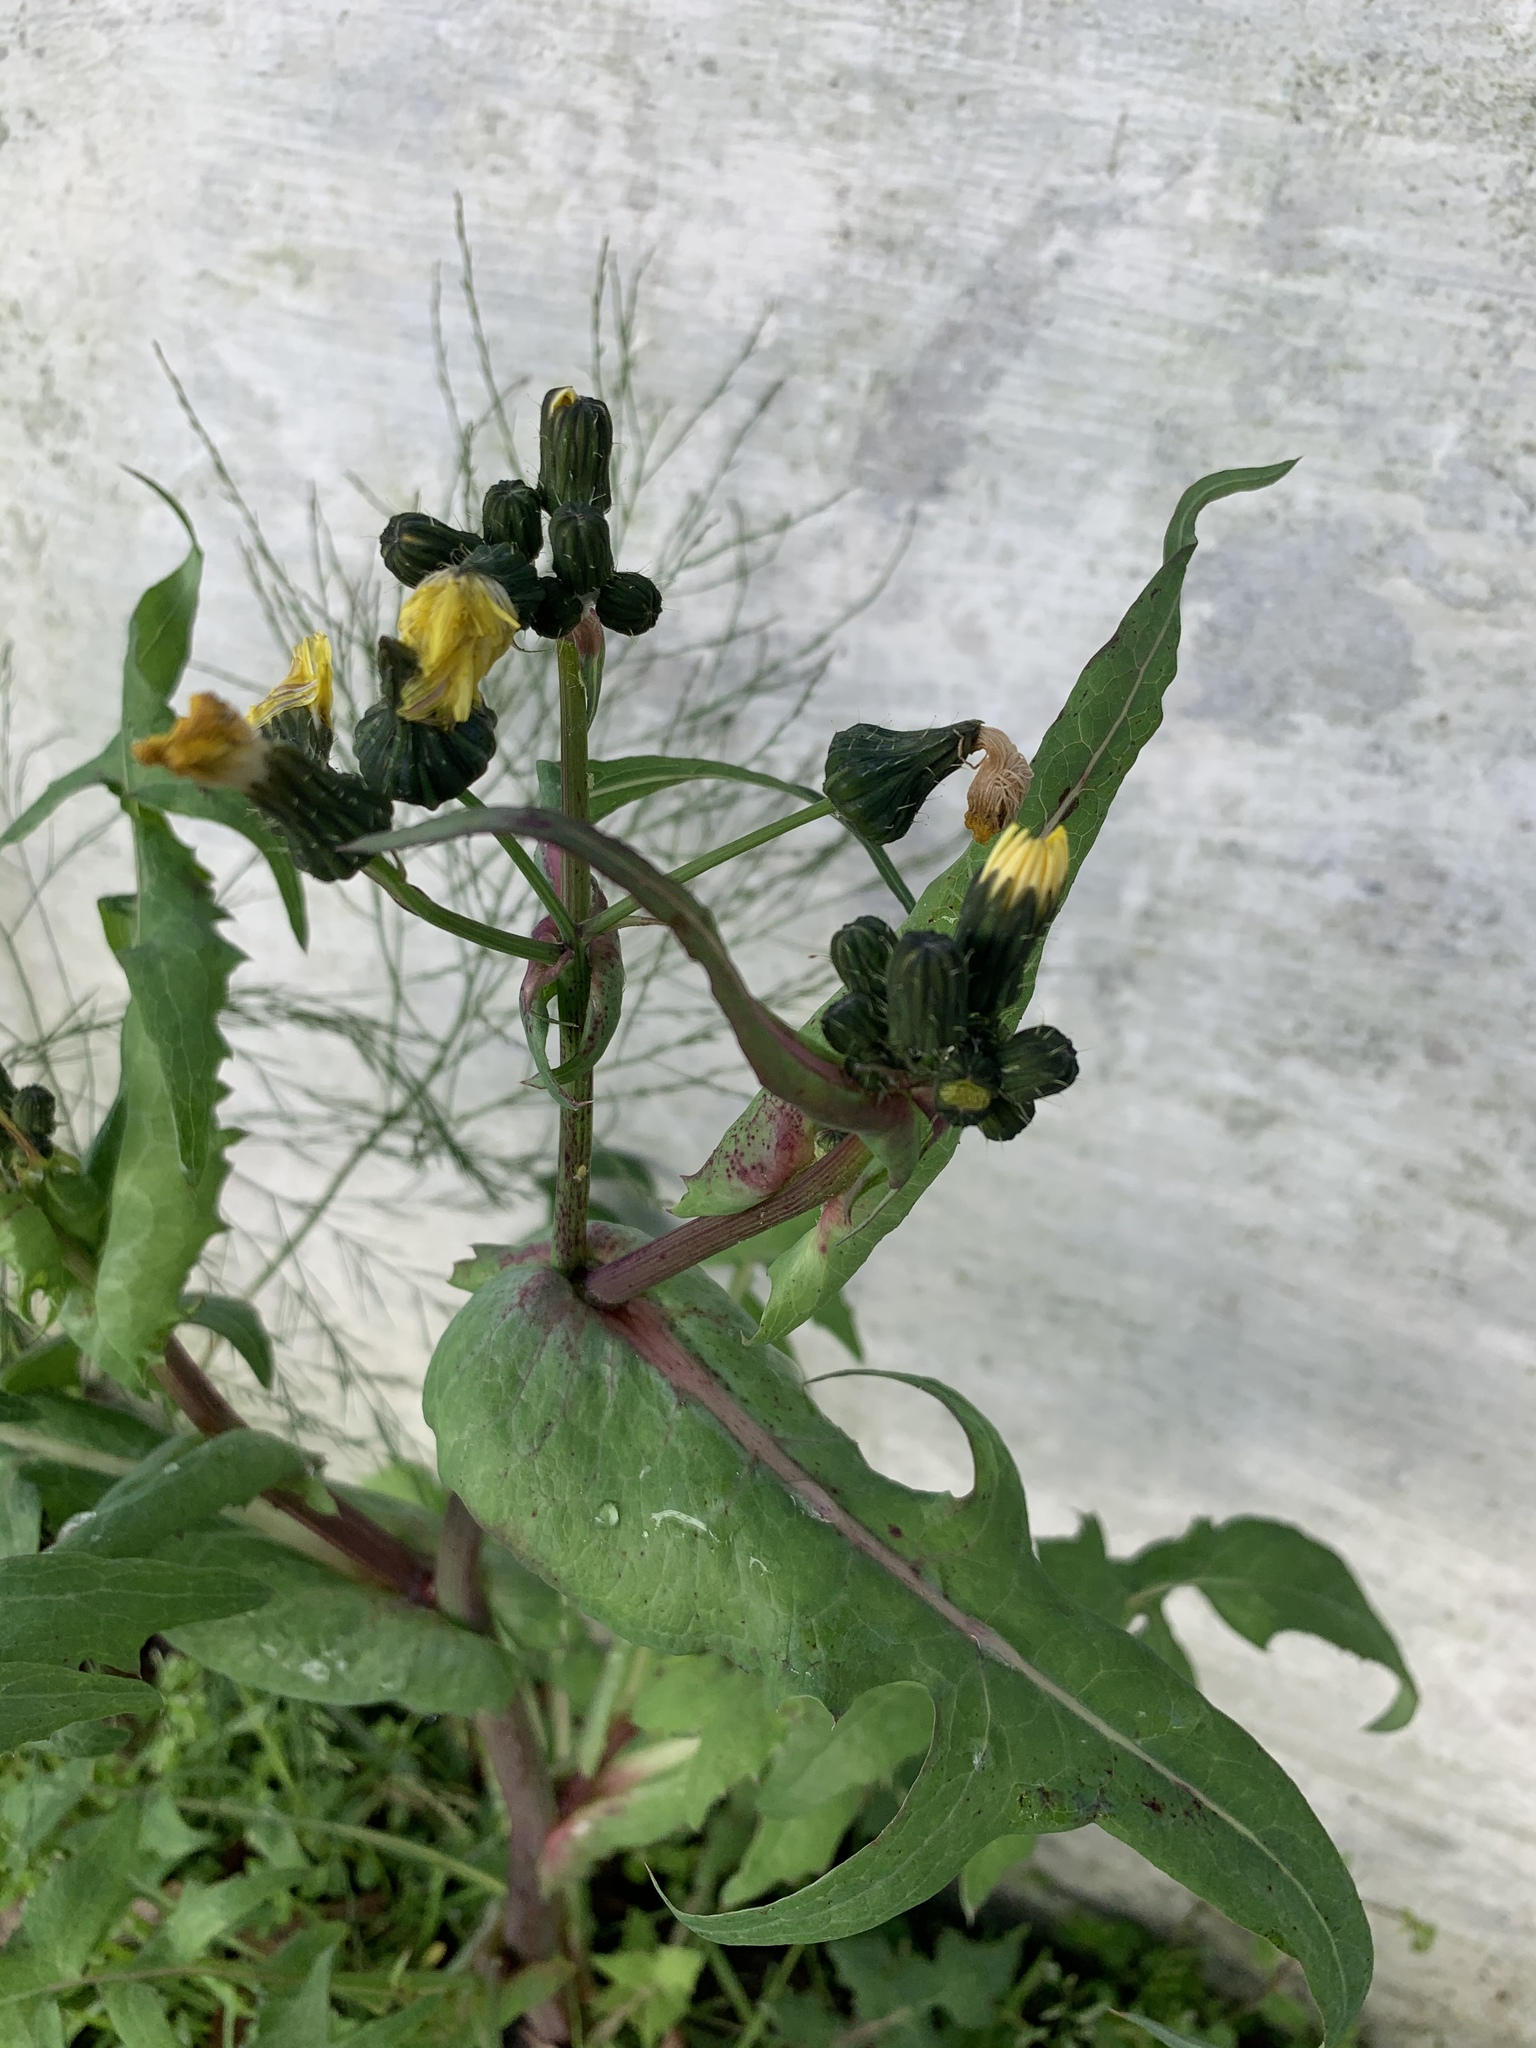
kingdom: Plantae
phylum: Tracheophyta
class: Magnoliopsida
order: Asterales
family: Asteraceae
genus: Sonchus
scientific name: Sonchus oleraceus
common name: Common sowthistle
